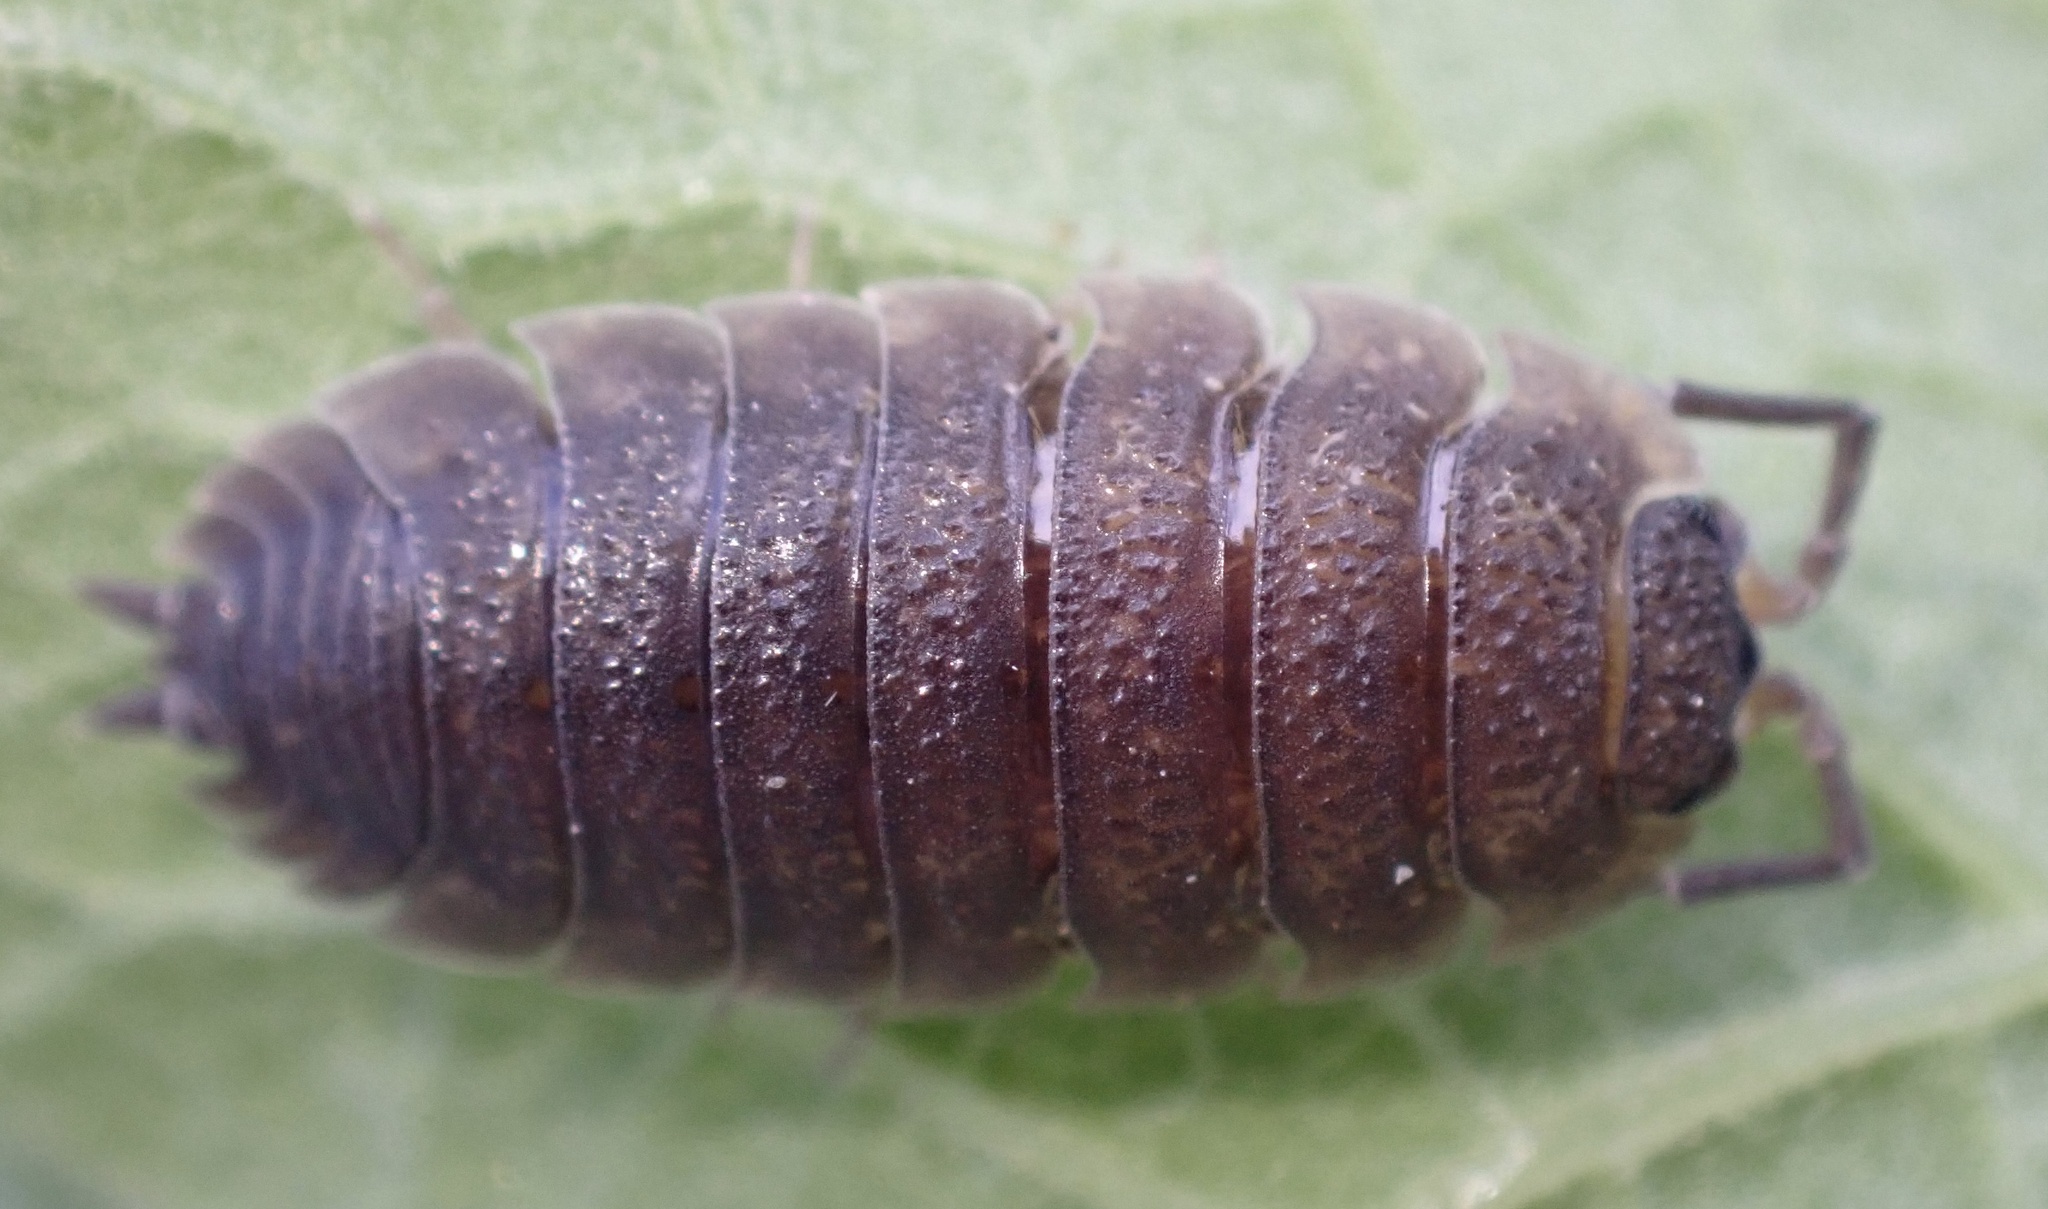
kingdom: Animalia
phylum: Arthropoda
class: Malacostraca
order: Isopoda
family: Porcellionidae
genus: Porcellio
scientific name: Porcellio scaber
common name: Common rough woodlouse
